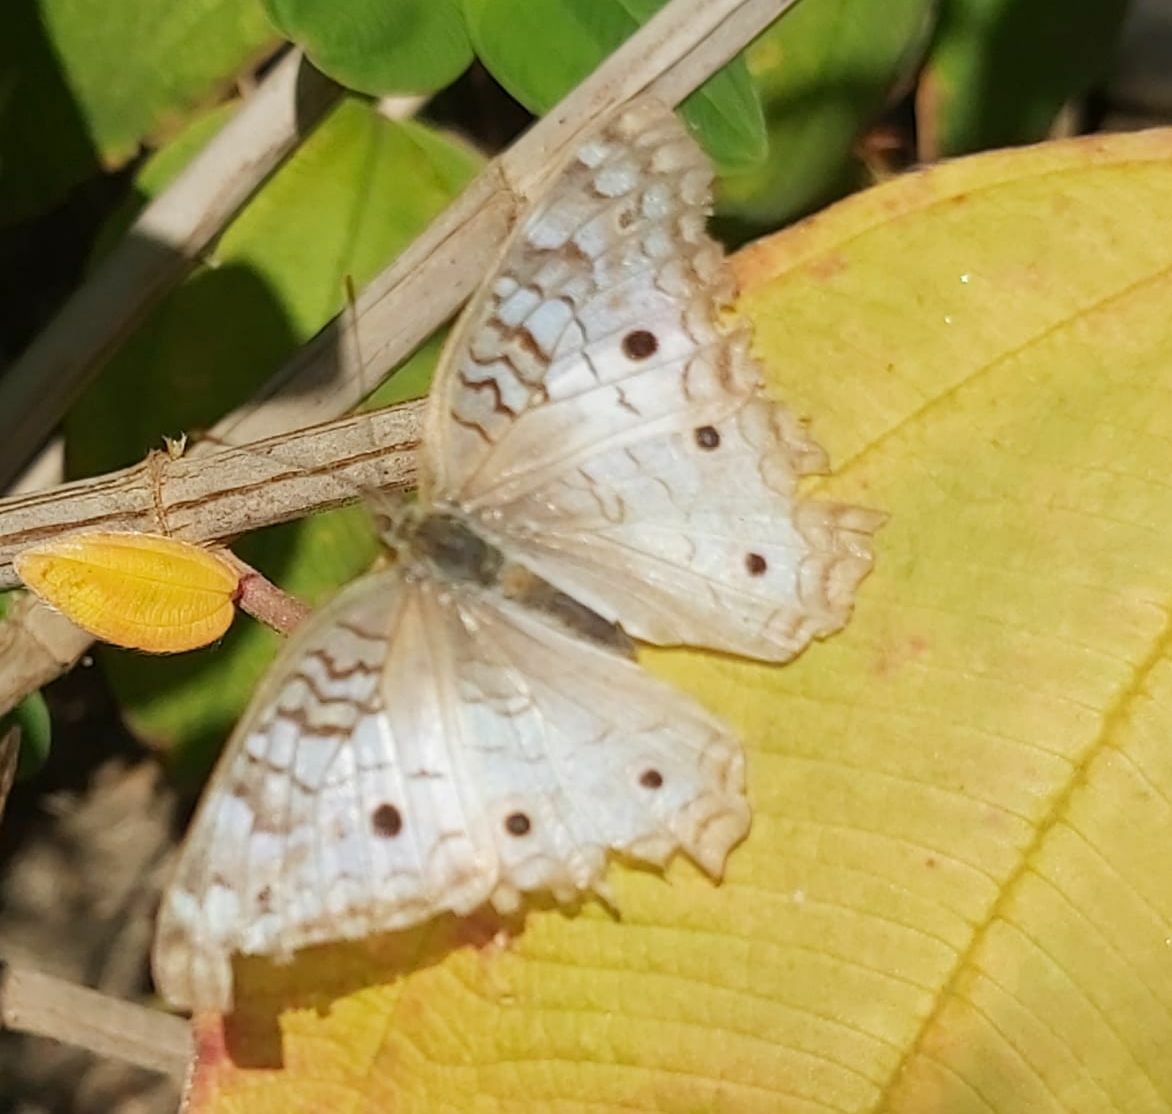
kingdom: Animalia
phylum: Arthropoda
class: Insecta
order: Lepidoptera
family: Nymphalidae
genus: Anartia
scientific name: Anartia jatrophae
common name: White peacock
